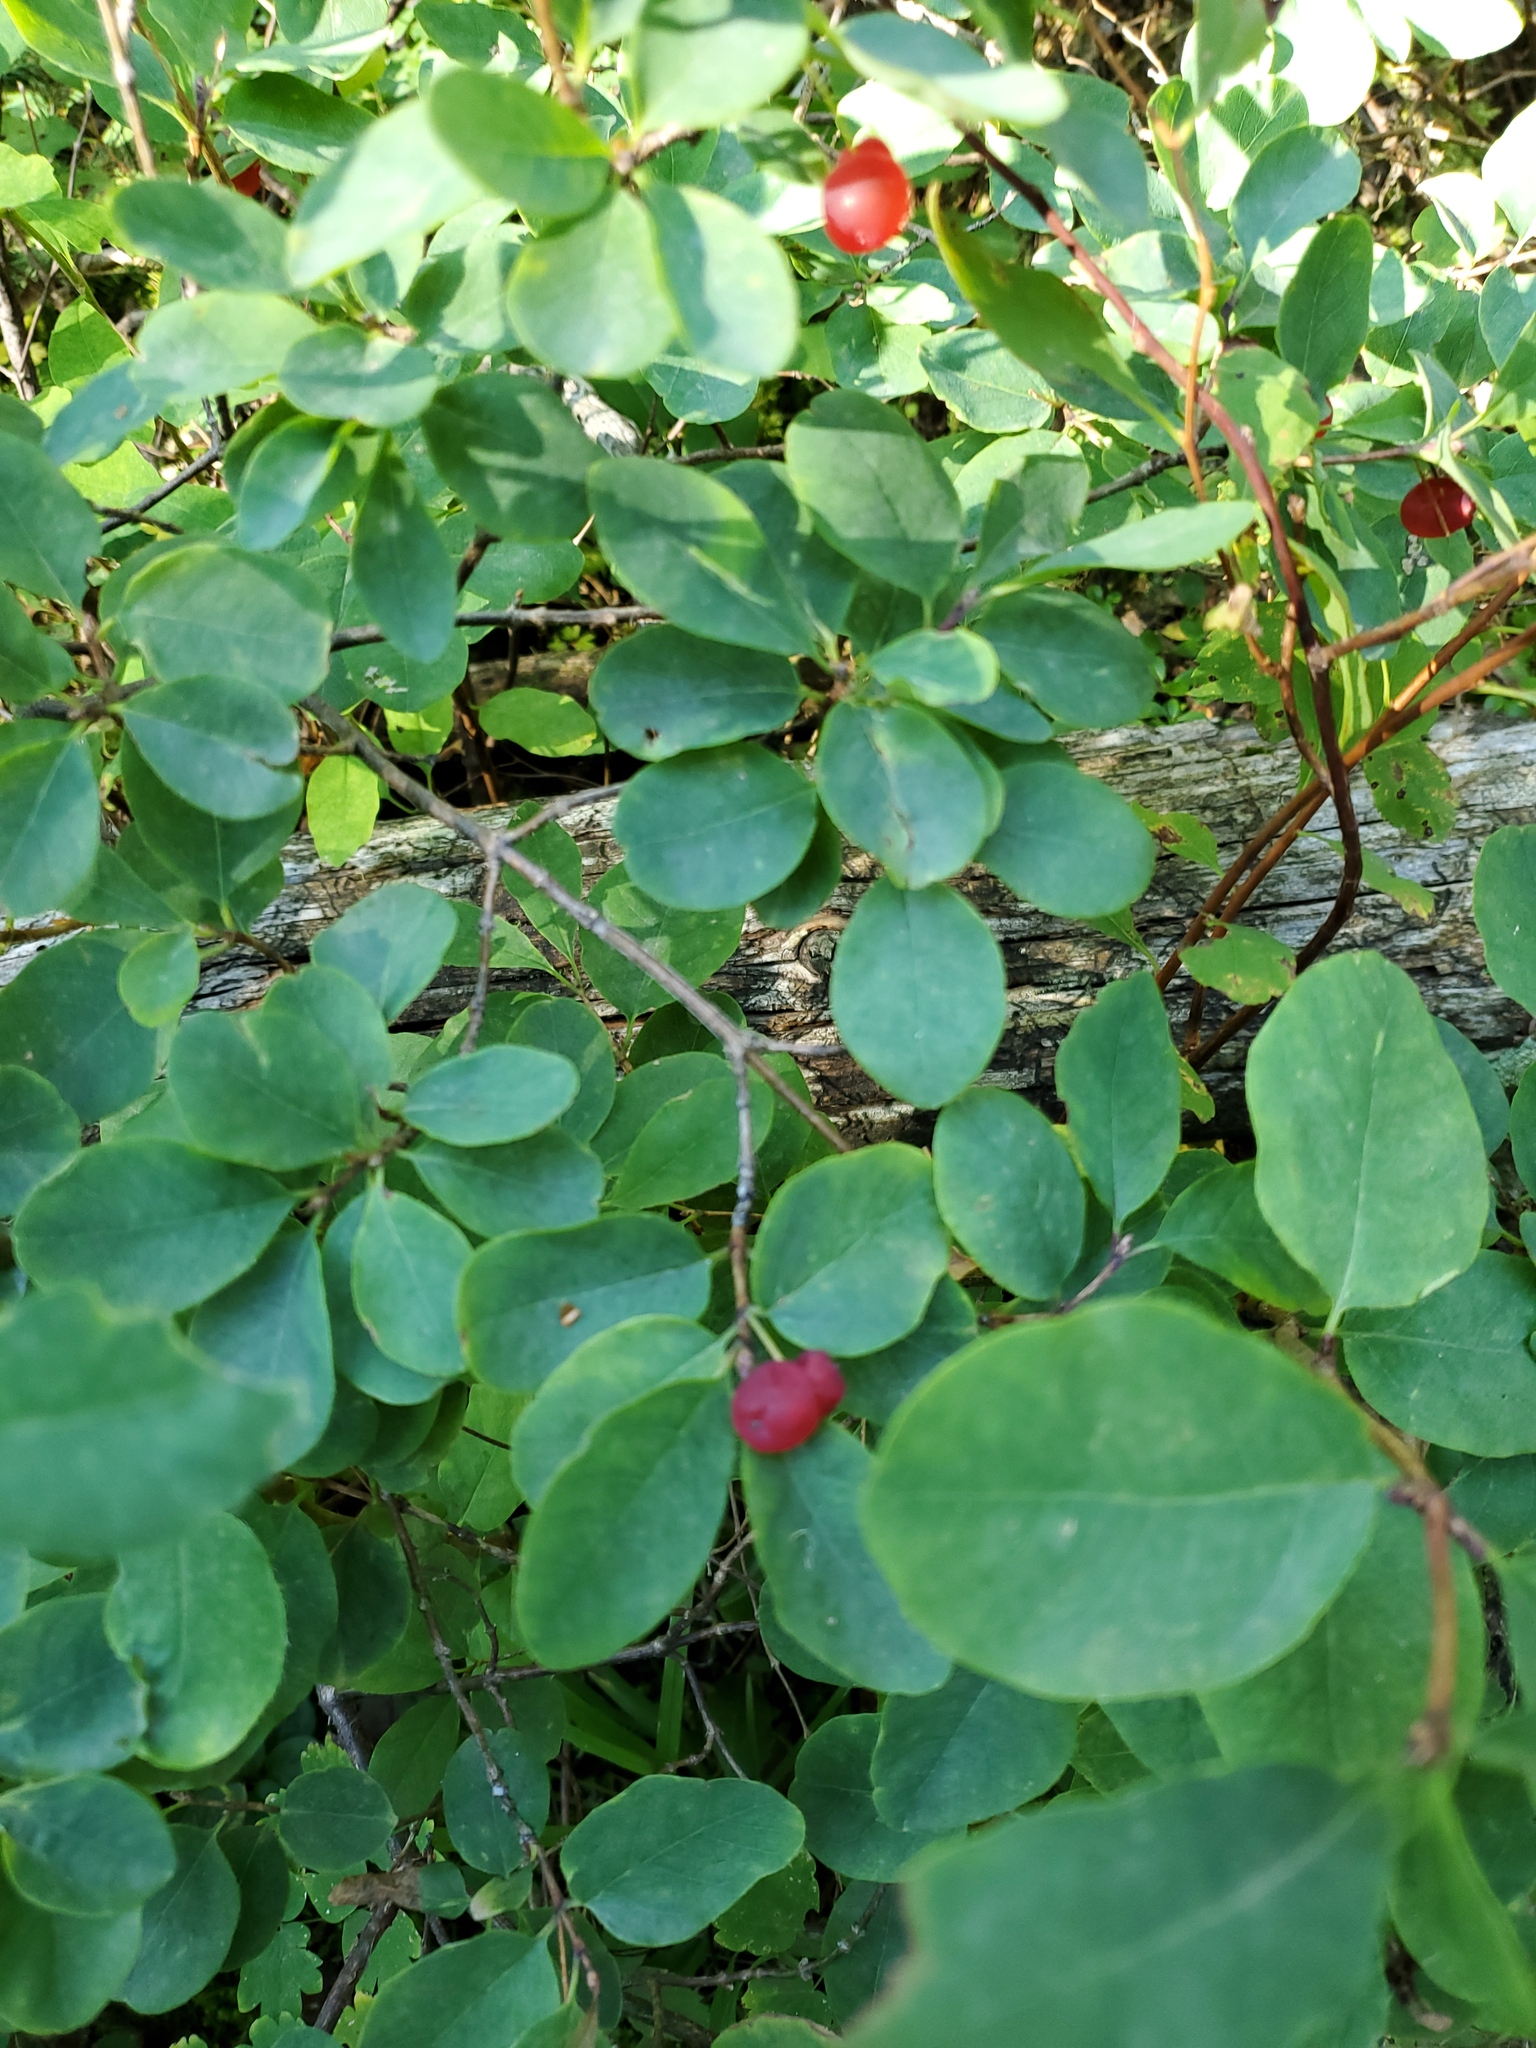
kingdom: Plantae
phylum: Tracheophyta
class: Magnoliopsida
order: Dipsacales
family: Caprifoliaceae
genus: Lonicera
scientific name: Lonicera utahensis
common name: Utah honeysuckle
